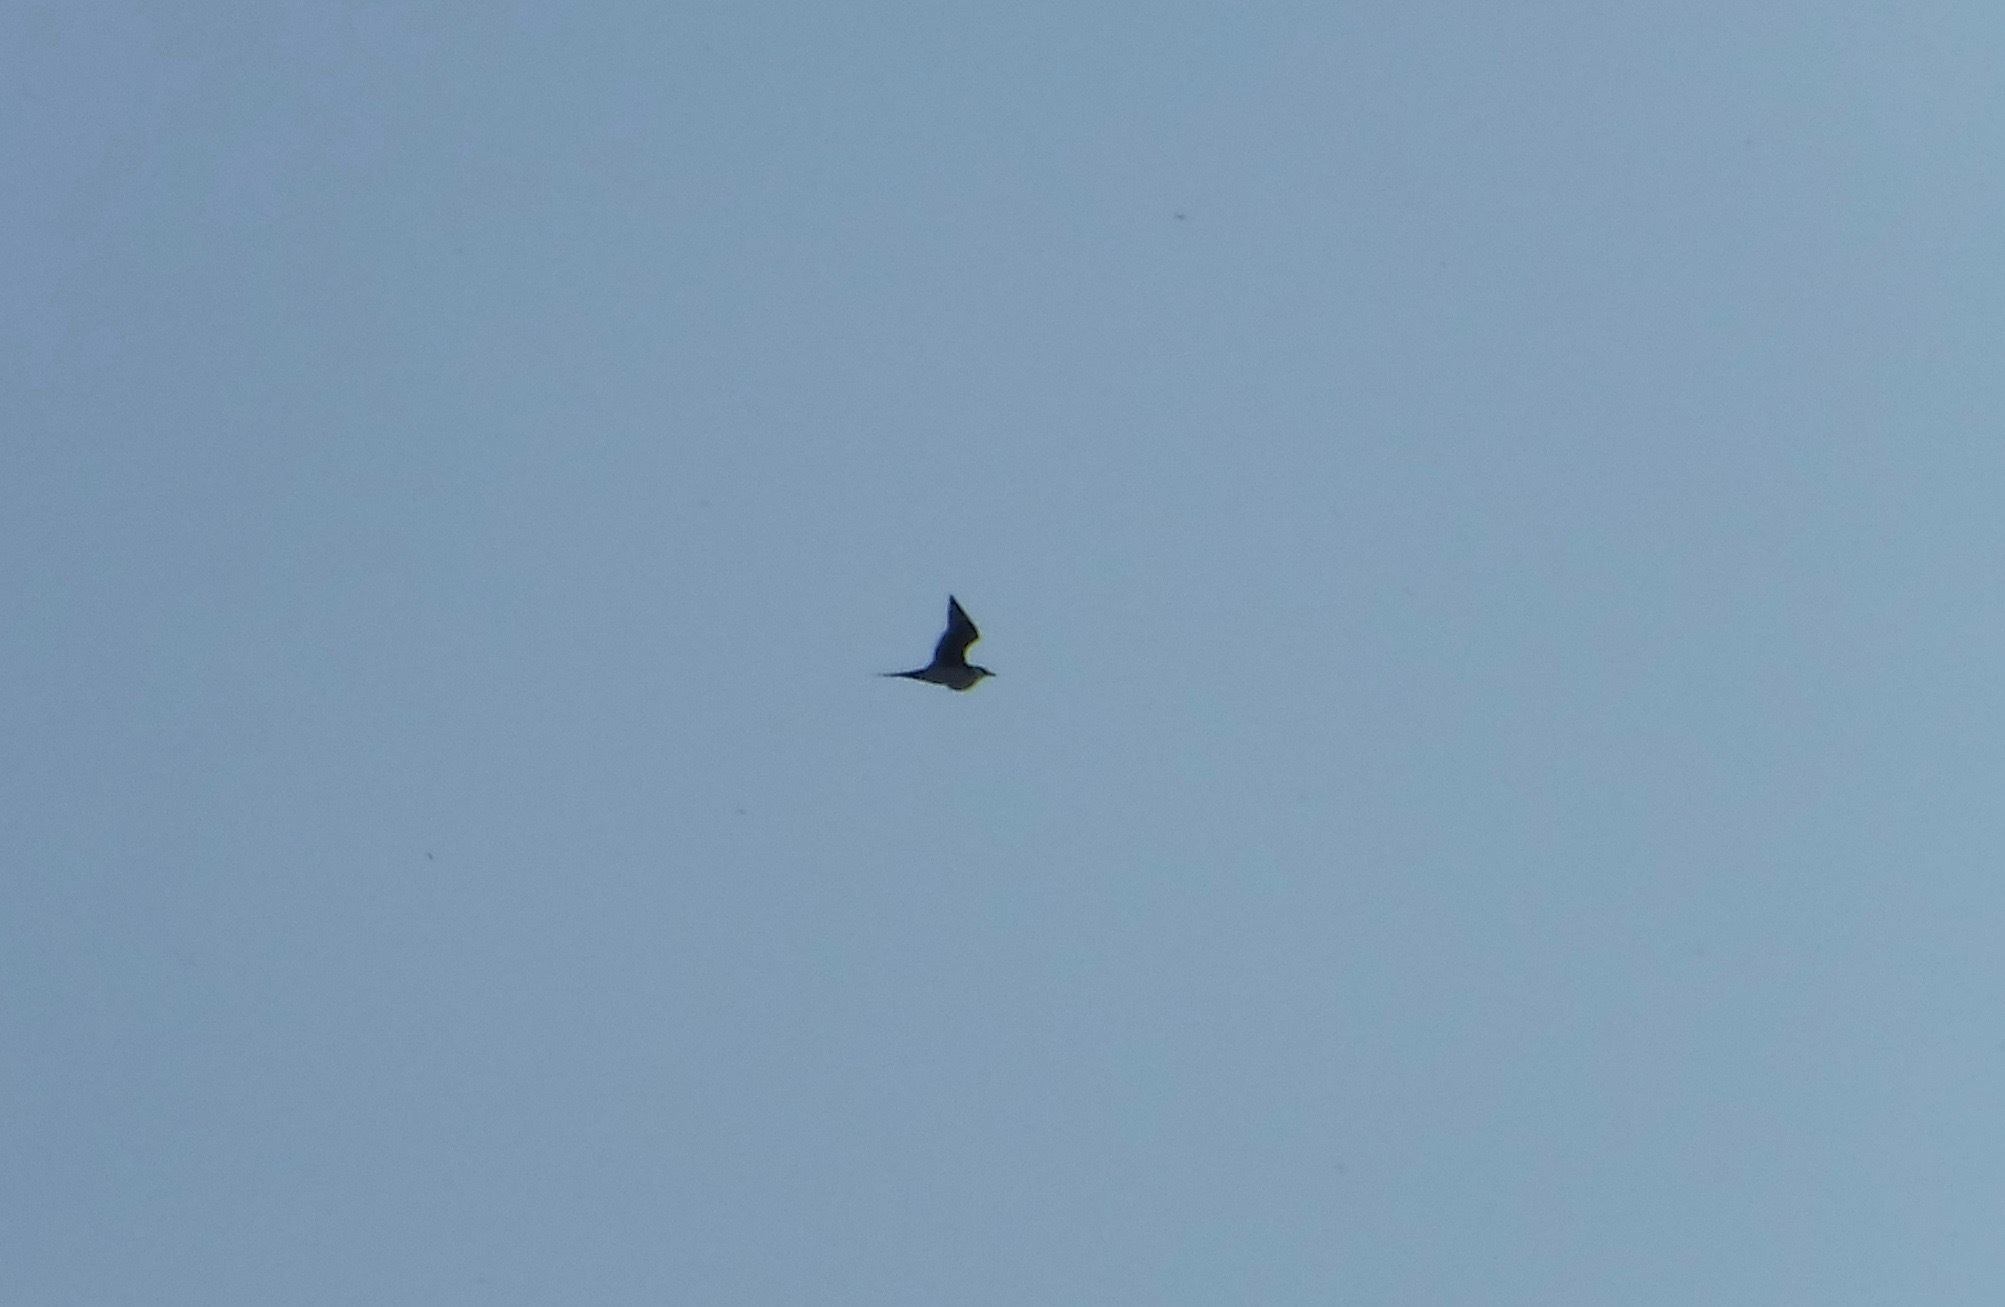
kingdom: Animalia
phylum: Chordata
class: Aves
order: Charadriiformes
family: Stercorariidae
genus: Stercorarius
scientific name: Stercorarius parasiticus
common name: Parasitic jaeger
